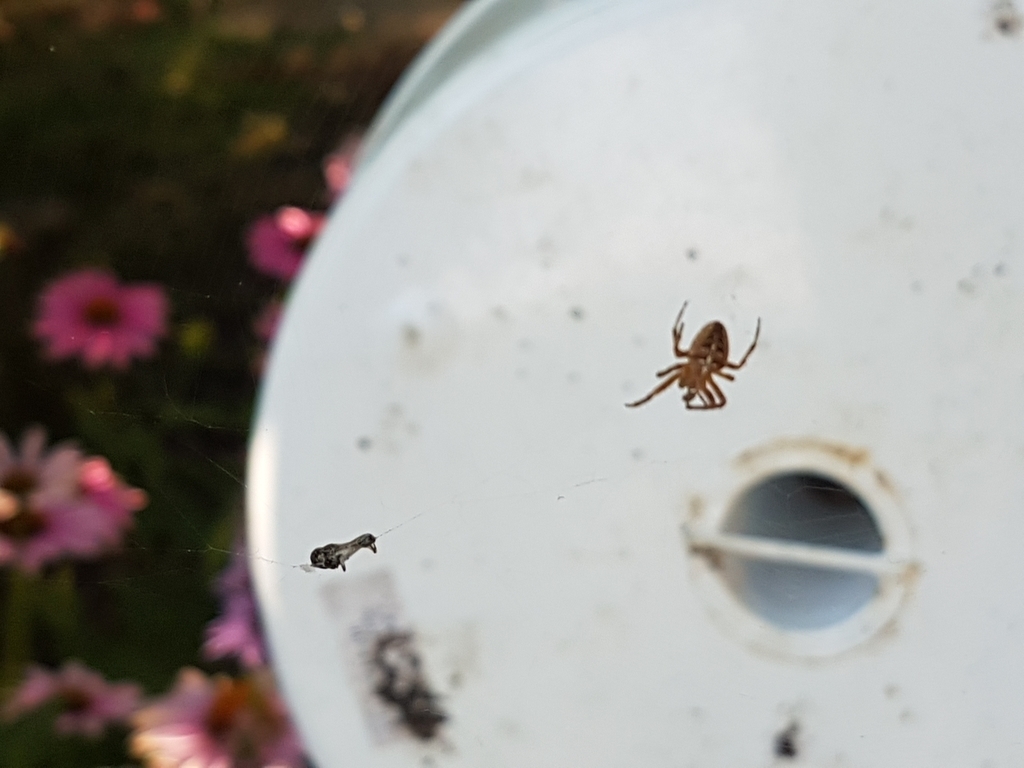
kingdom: Animalia
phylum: Arthropoda
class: Insecta
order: Diptera
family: Syrphidae
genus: Tropidina
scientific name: Tropidina
